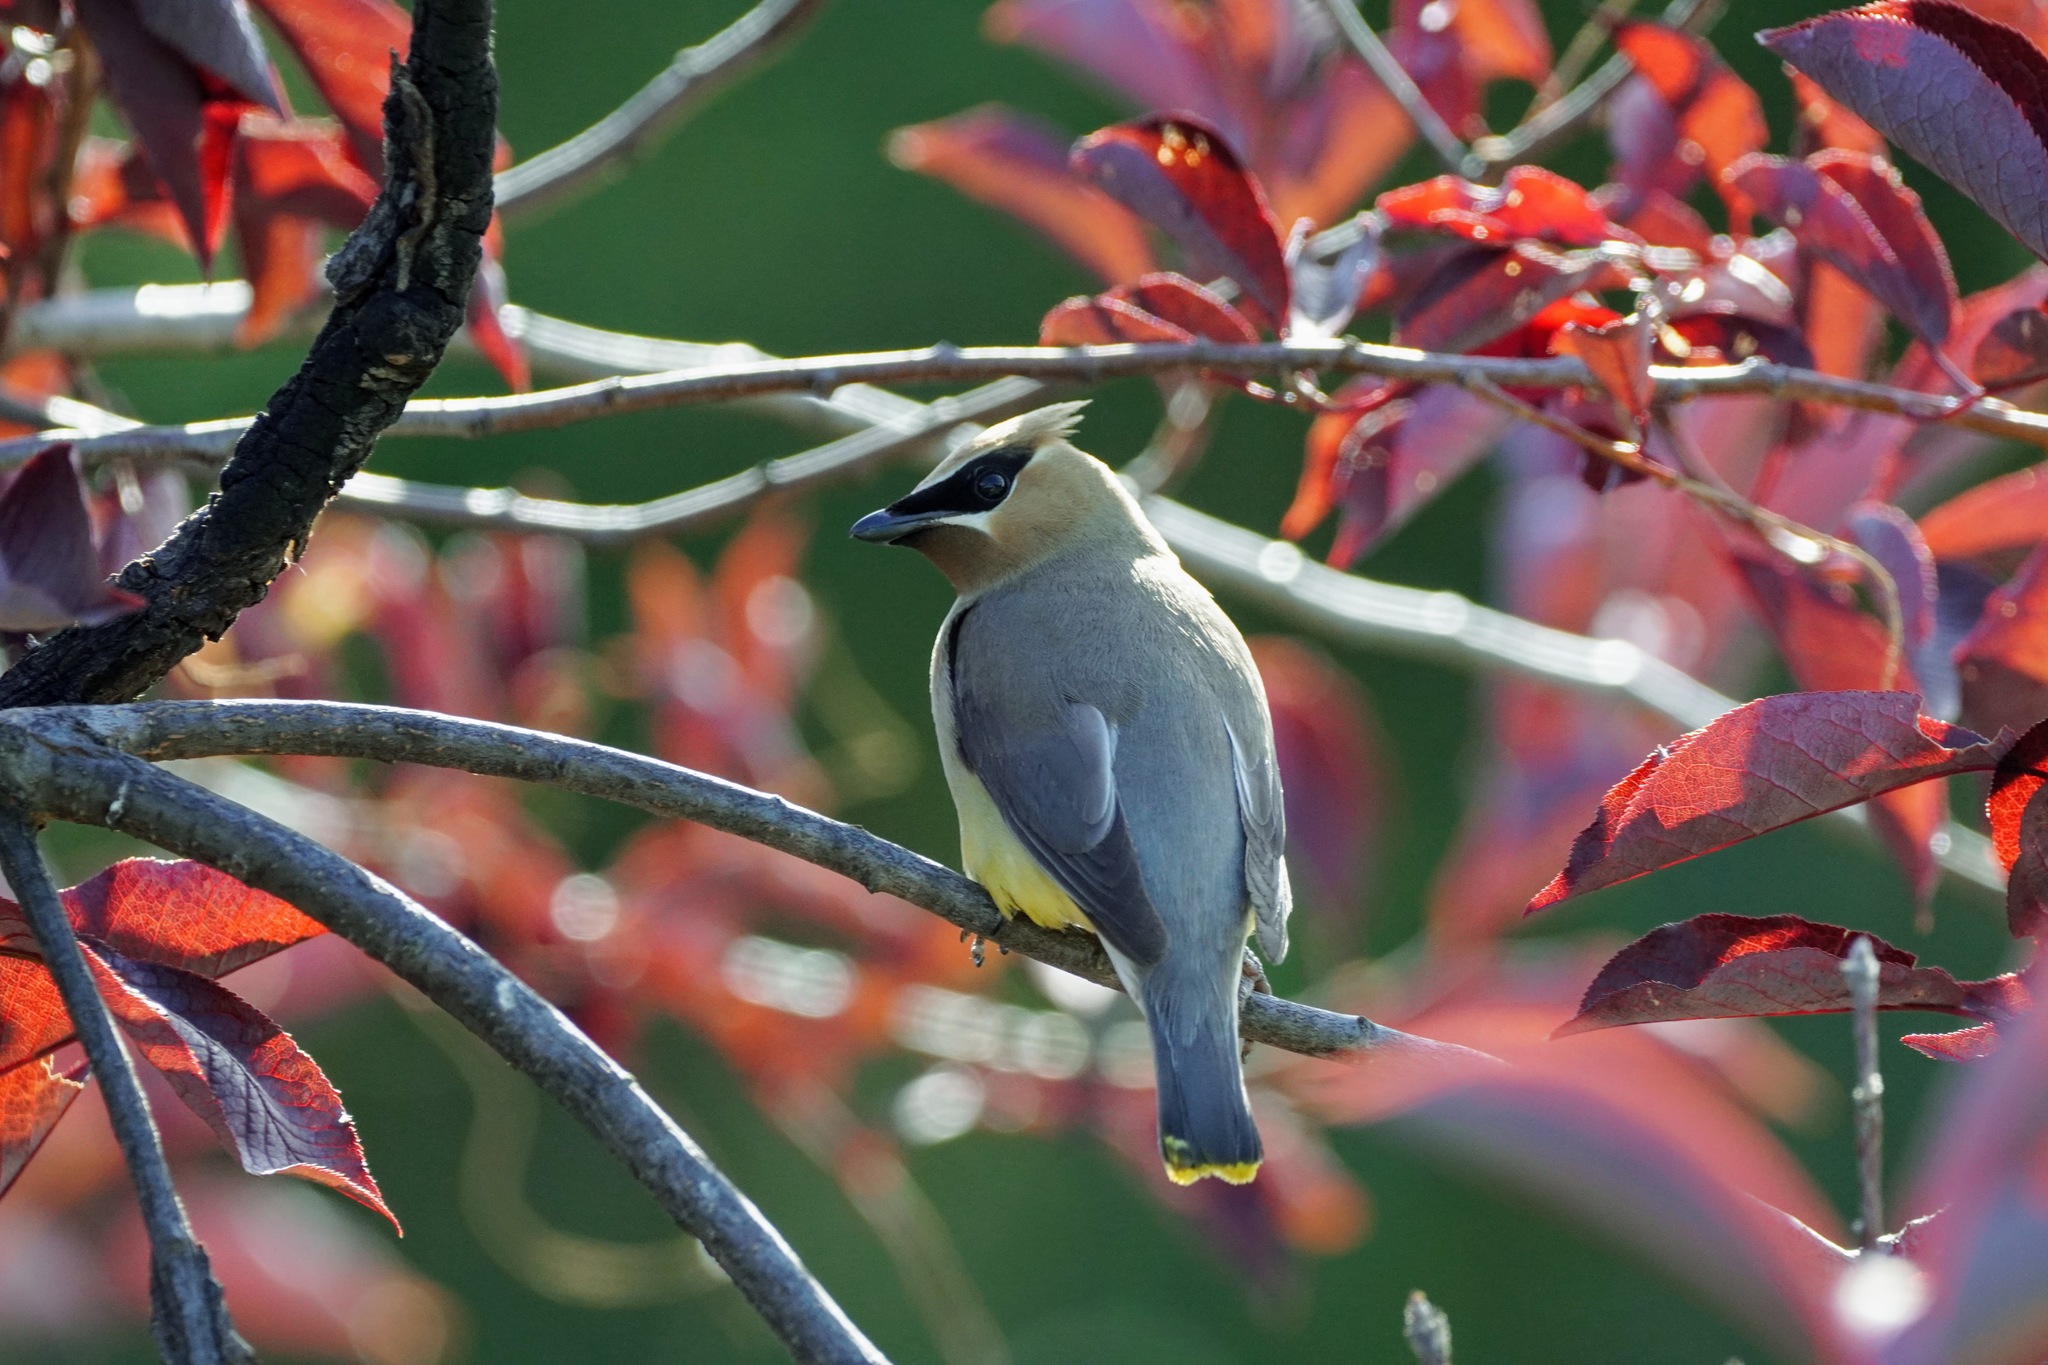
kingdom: Animalia
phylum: Chordata
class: Aves
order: Passeriformes
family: Bombycillidae
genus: Bombycilla
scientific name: Bombycilla cedrorum
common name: Cedar waxwing
